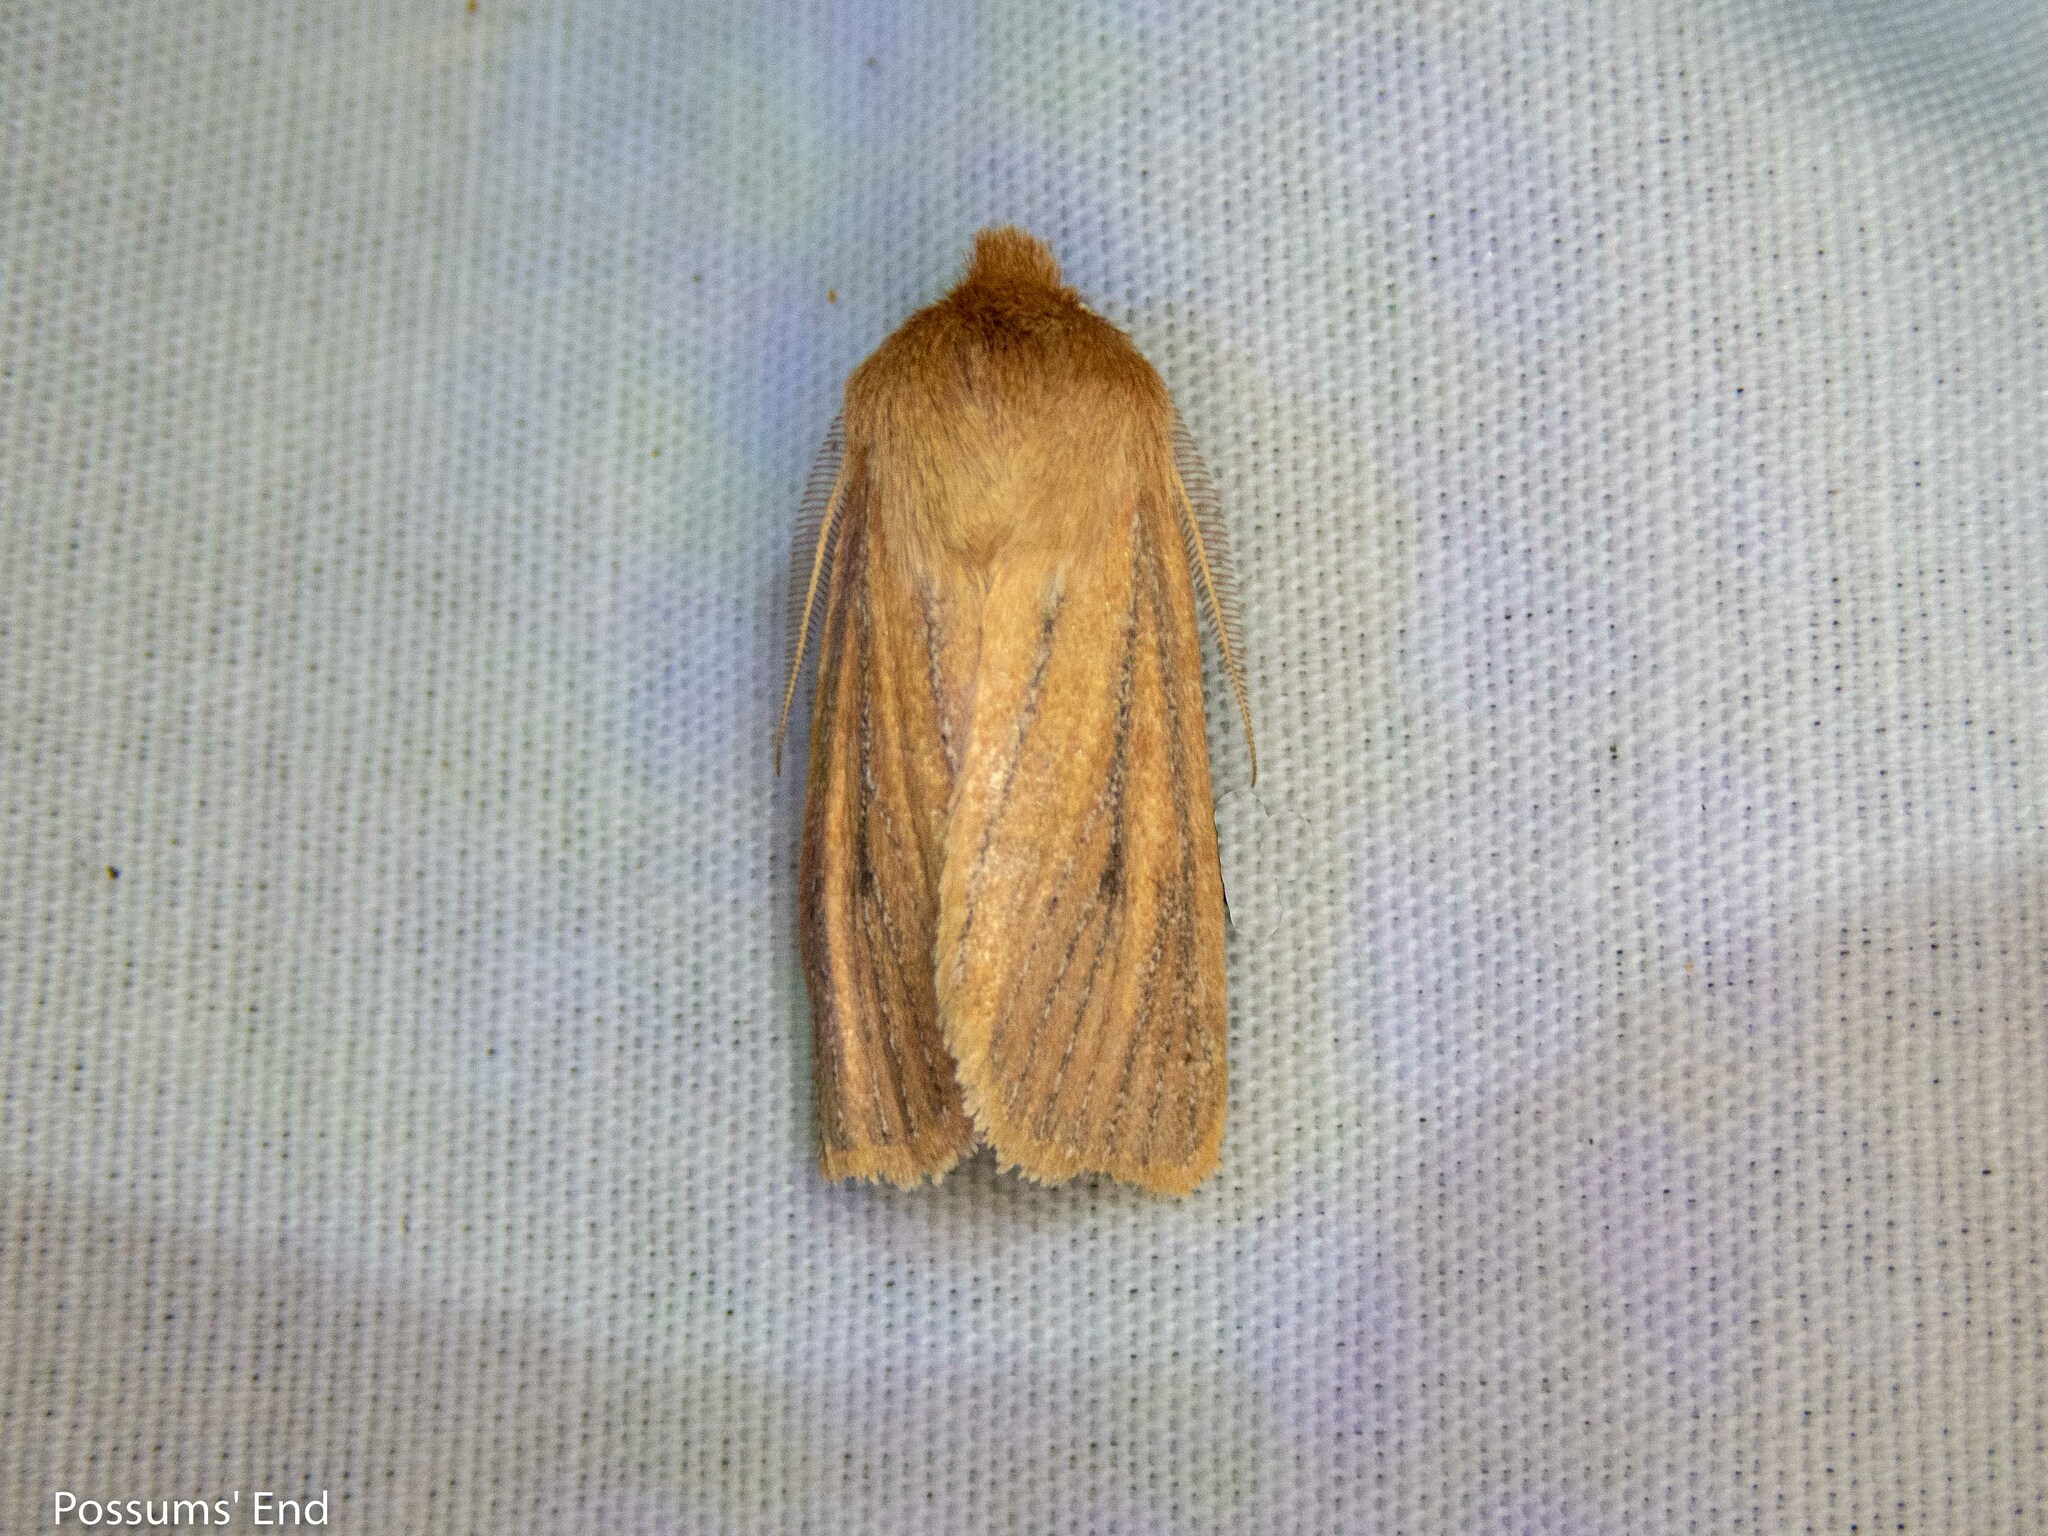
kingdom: Animalia
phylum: Arthropoda
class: Insecta
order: Lepidoptera
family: Noctuidae
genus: Ichneutica
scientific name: Ichneutica
